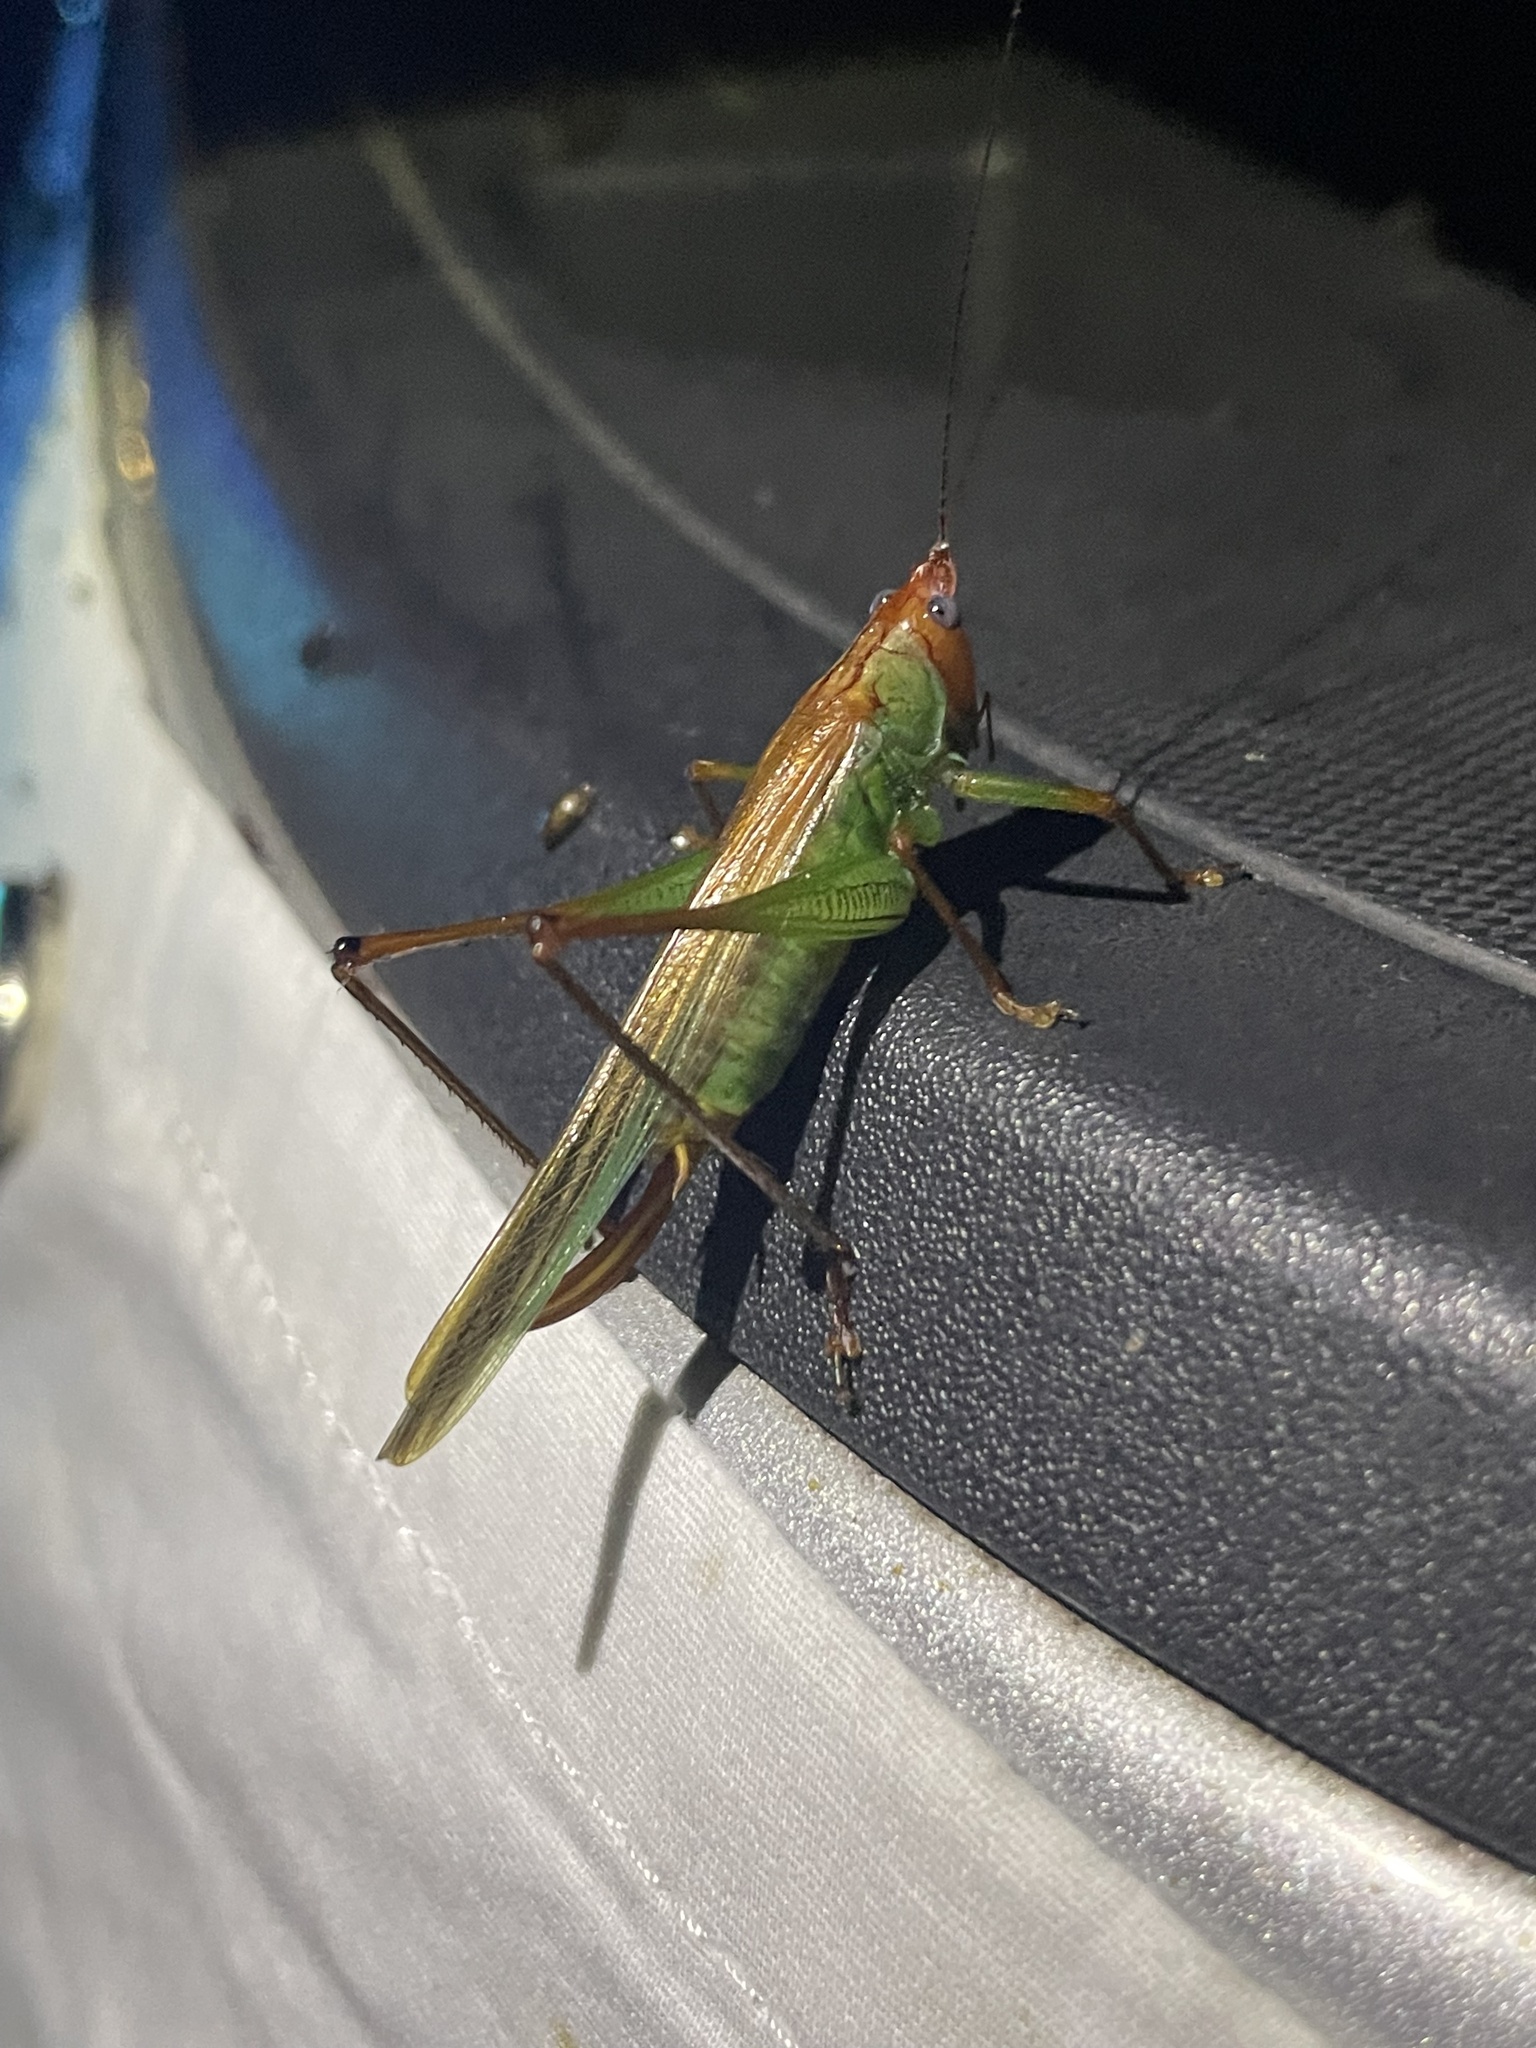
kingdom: Animalia
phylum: Arthropoda
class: Insecta
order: Orthoptera
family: Tettigoniidae
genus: Orchelimum
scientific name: Orchelimum pulchellum
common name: Handsome meadow katydid
